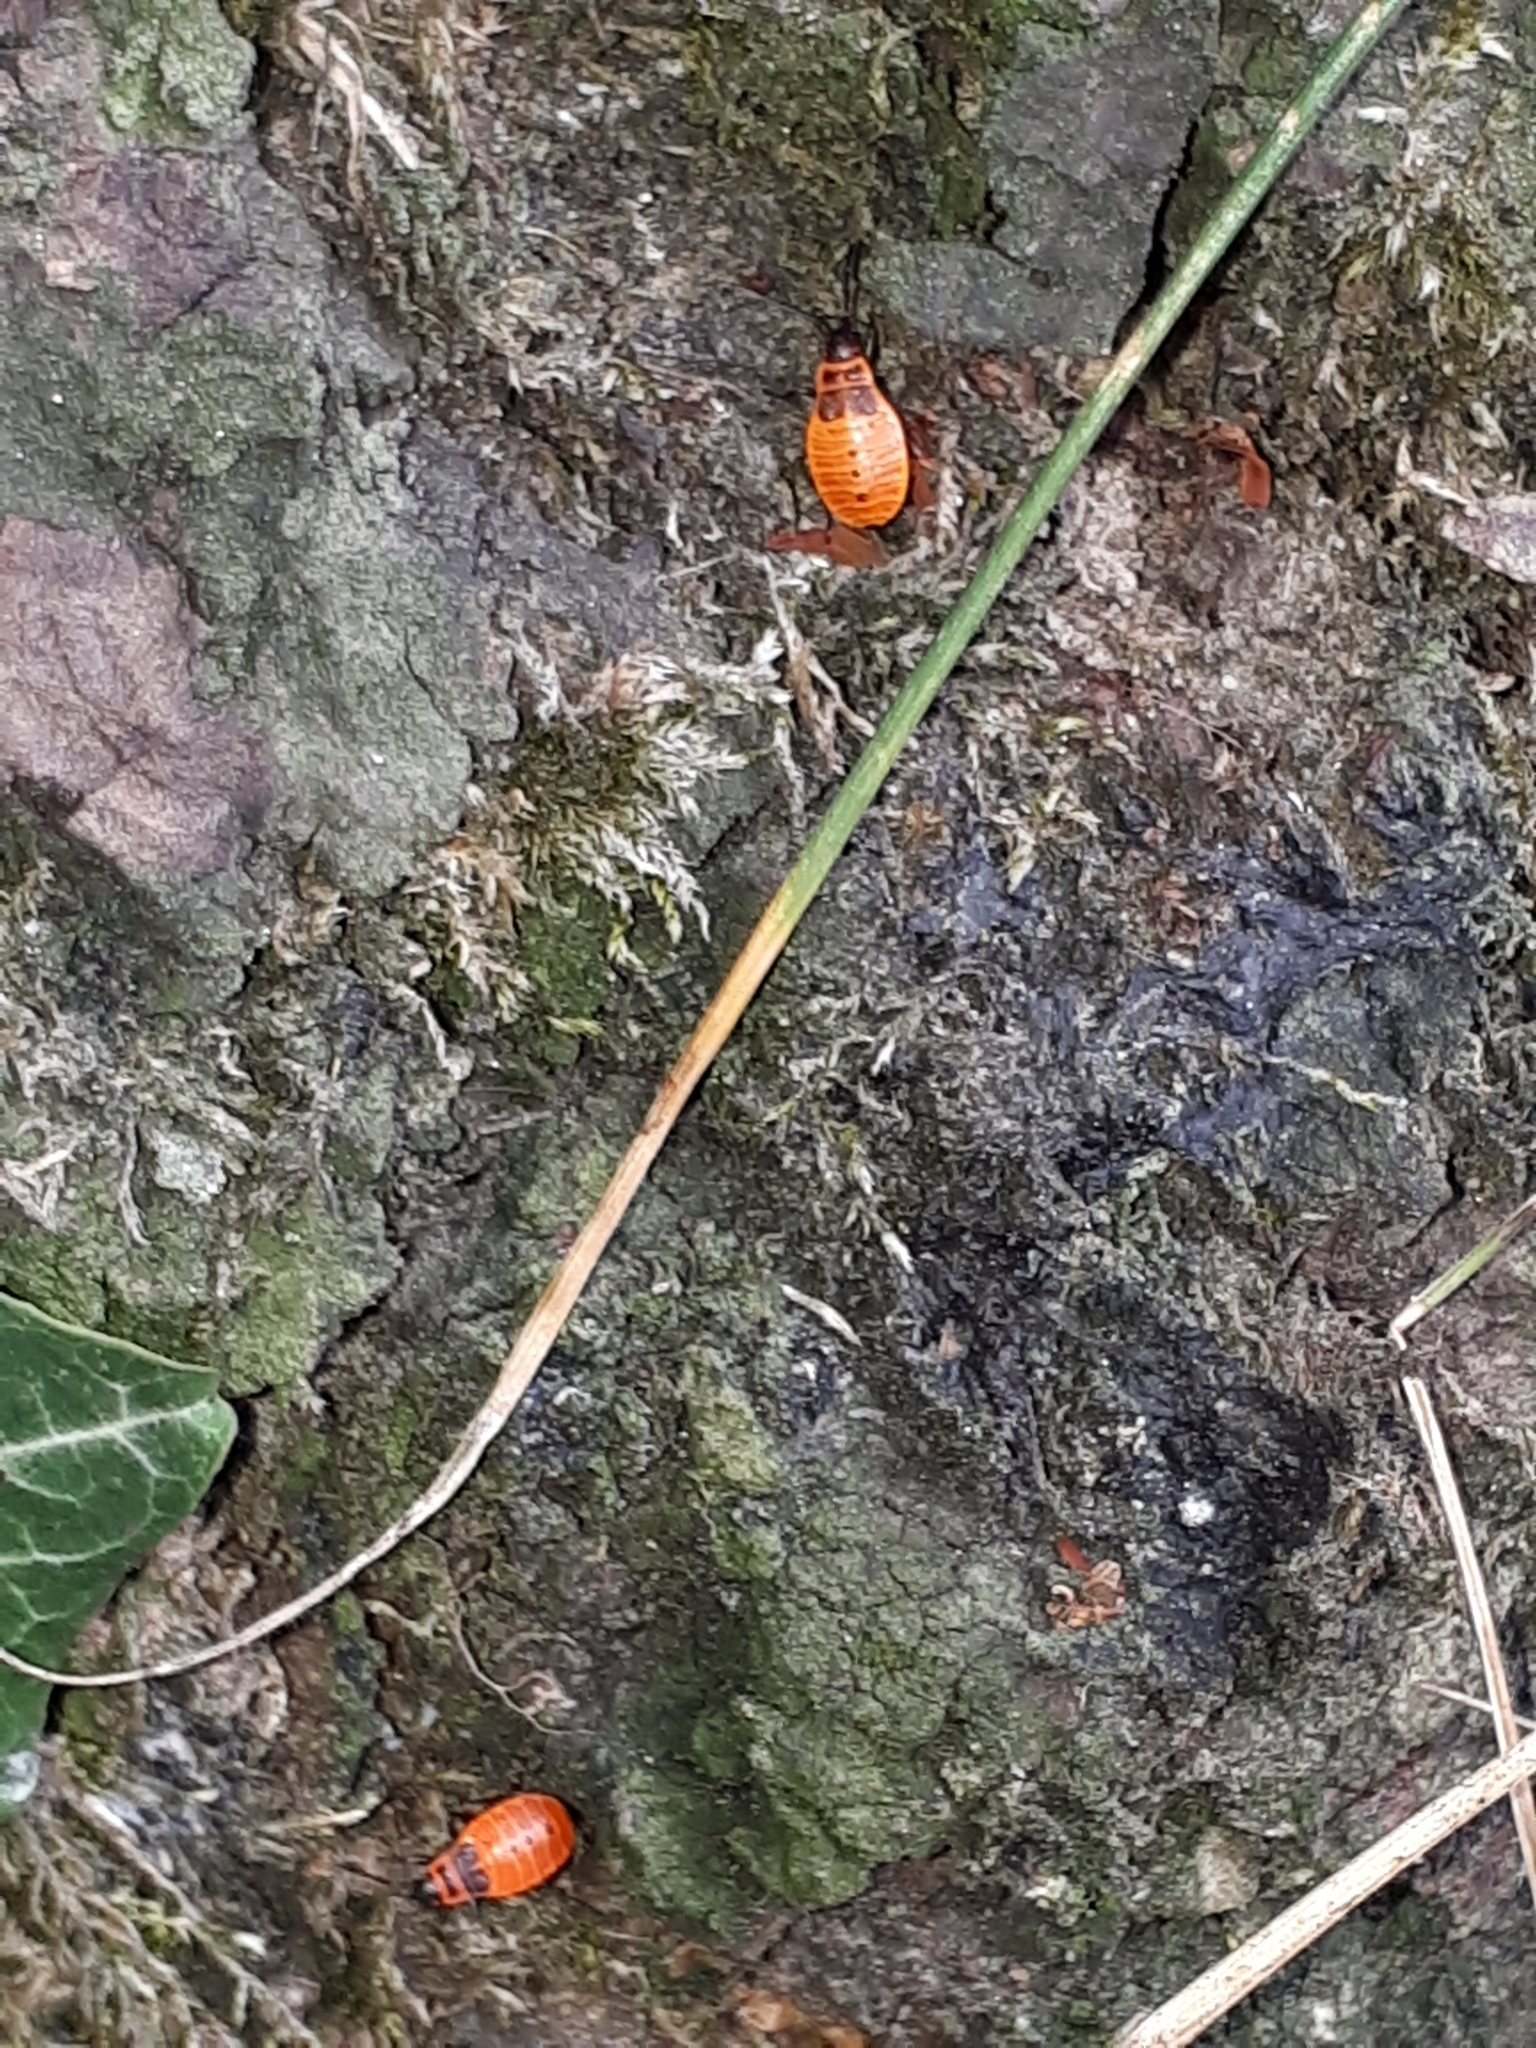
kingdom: Animalia
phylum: Arthropoda
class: Insecta
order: Hemiptera
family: Pyrrhocoridae
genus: Pyrrhocoris
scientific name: Pyrrhocoris apterus
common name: Firebug
